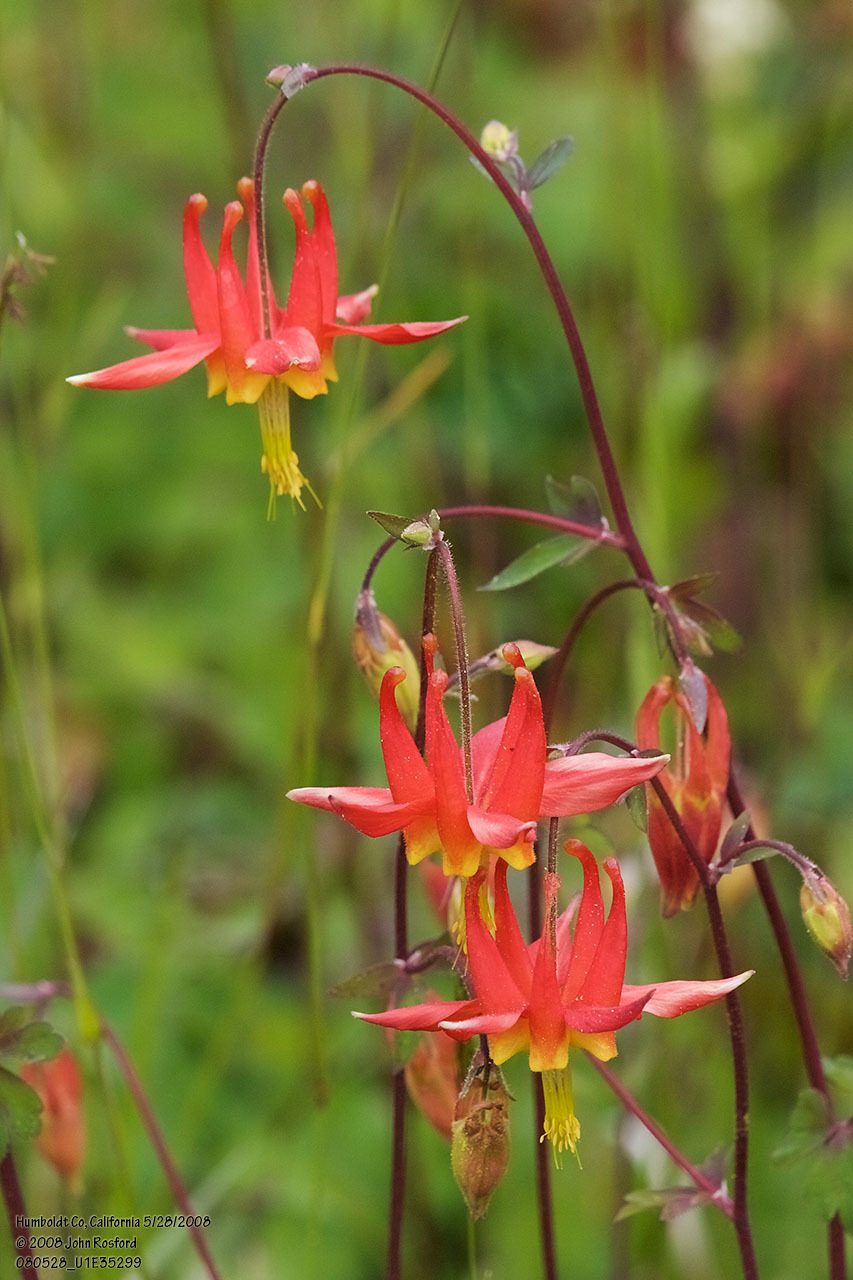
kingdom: Plantae
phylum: Tracheophyta
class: Magnoliopsida
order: Ranunculales
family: Ranunculaceae
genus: Aquilegia
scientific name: Aquilegia formosa
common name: Sitka columbine
